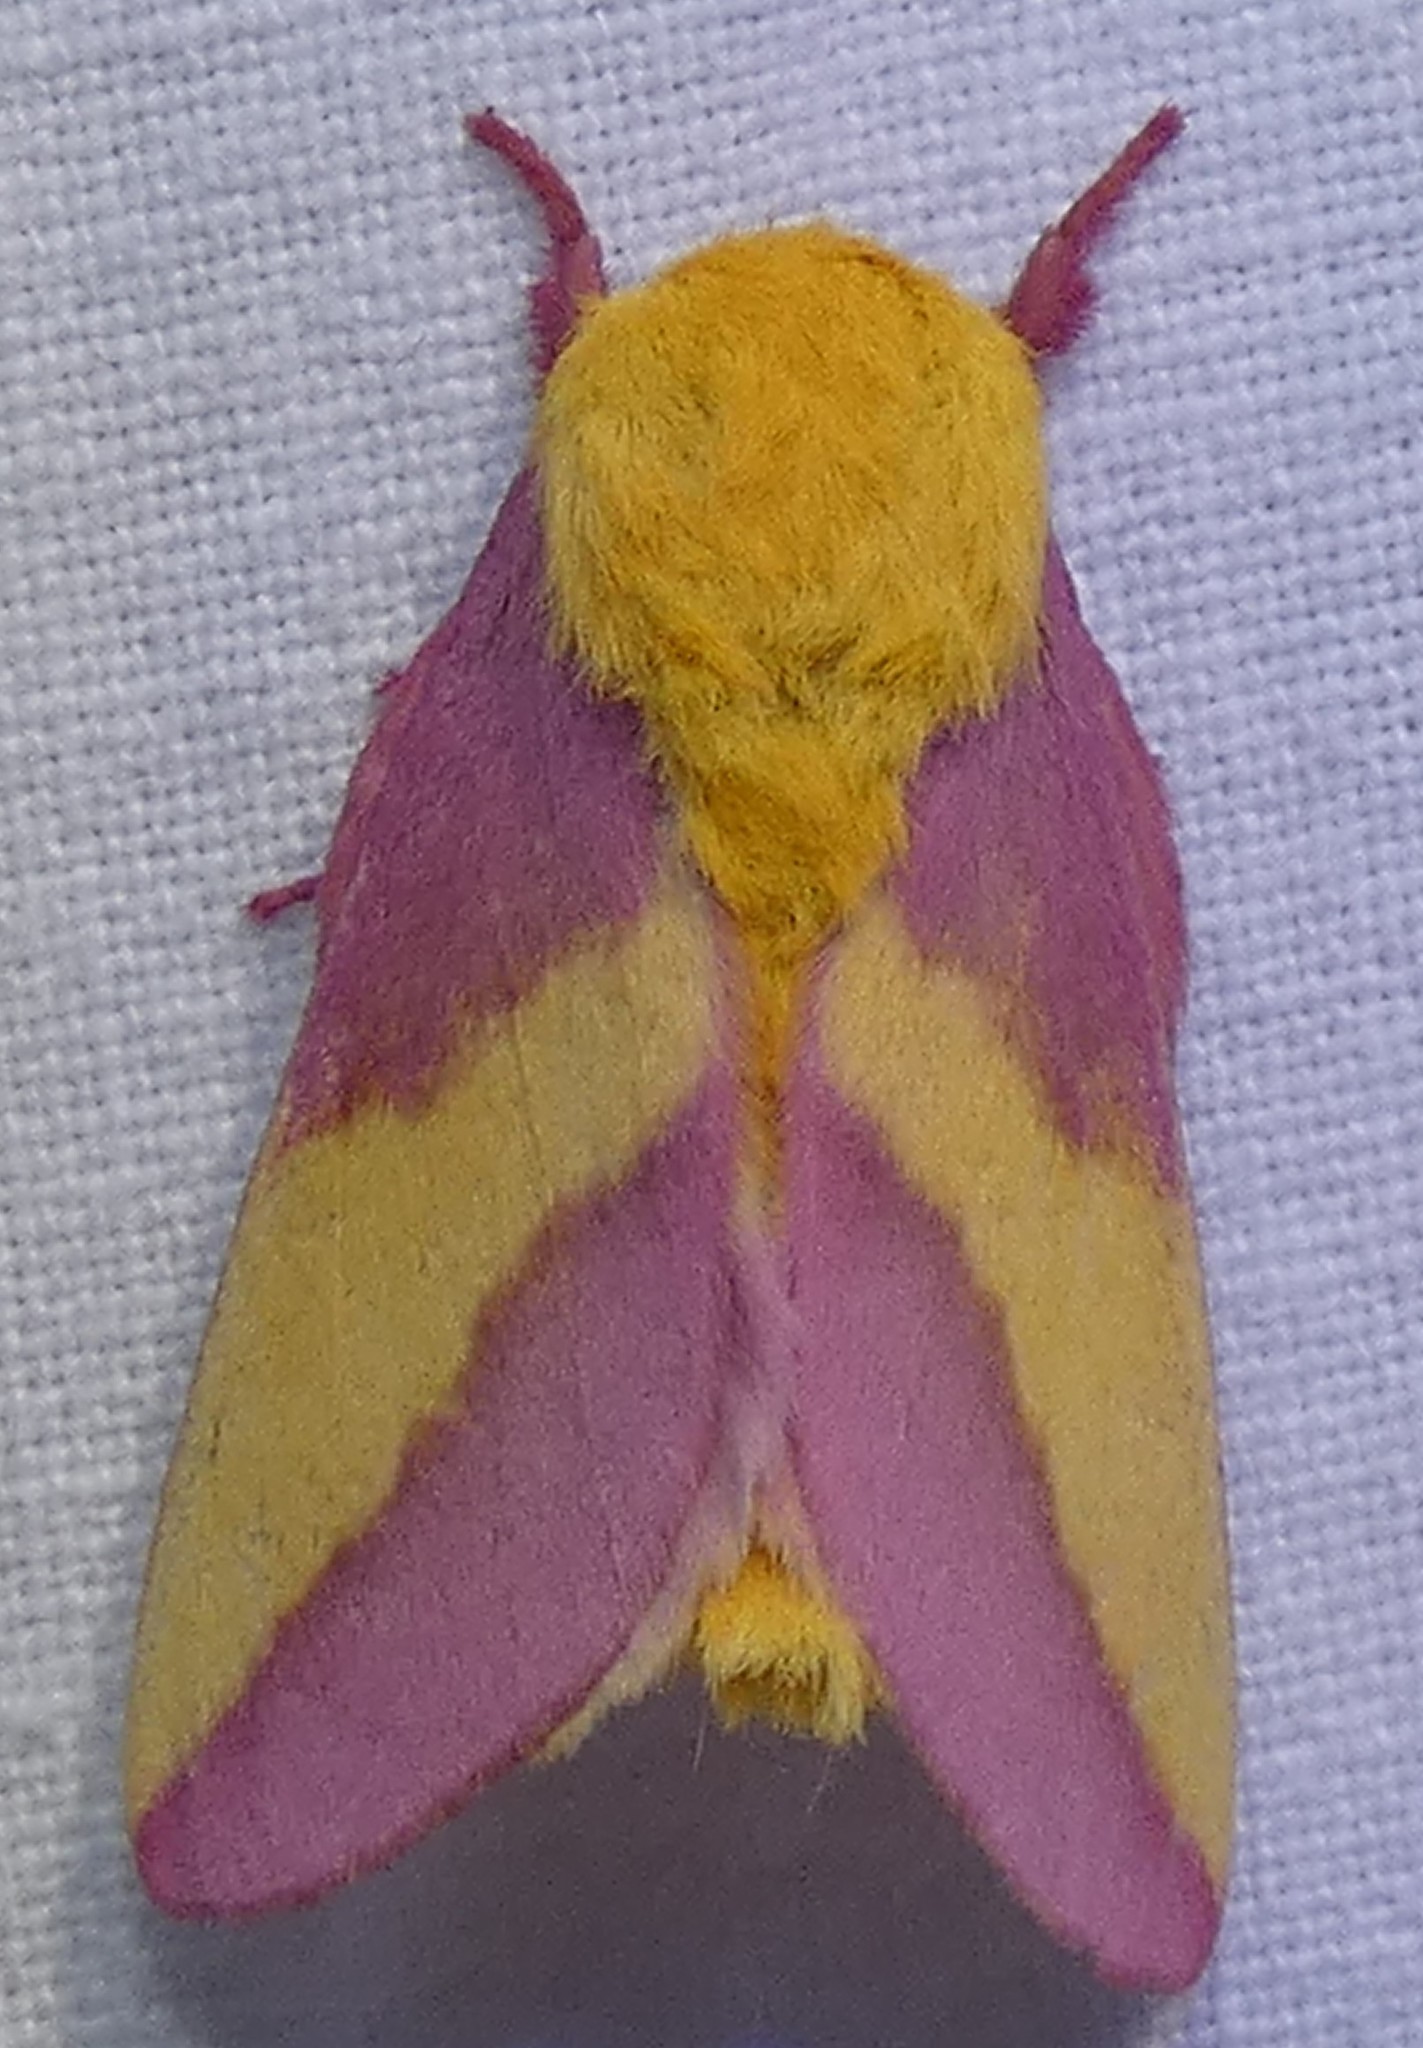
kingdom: Animalia
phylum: Arthropoda
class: Insecta
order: Lepidoptera
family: Saturniidae
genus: Dryocampa
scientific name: Dryocampa rubicunda
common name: Rosy maple moth
